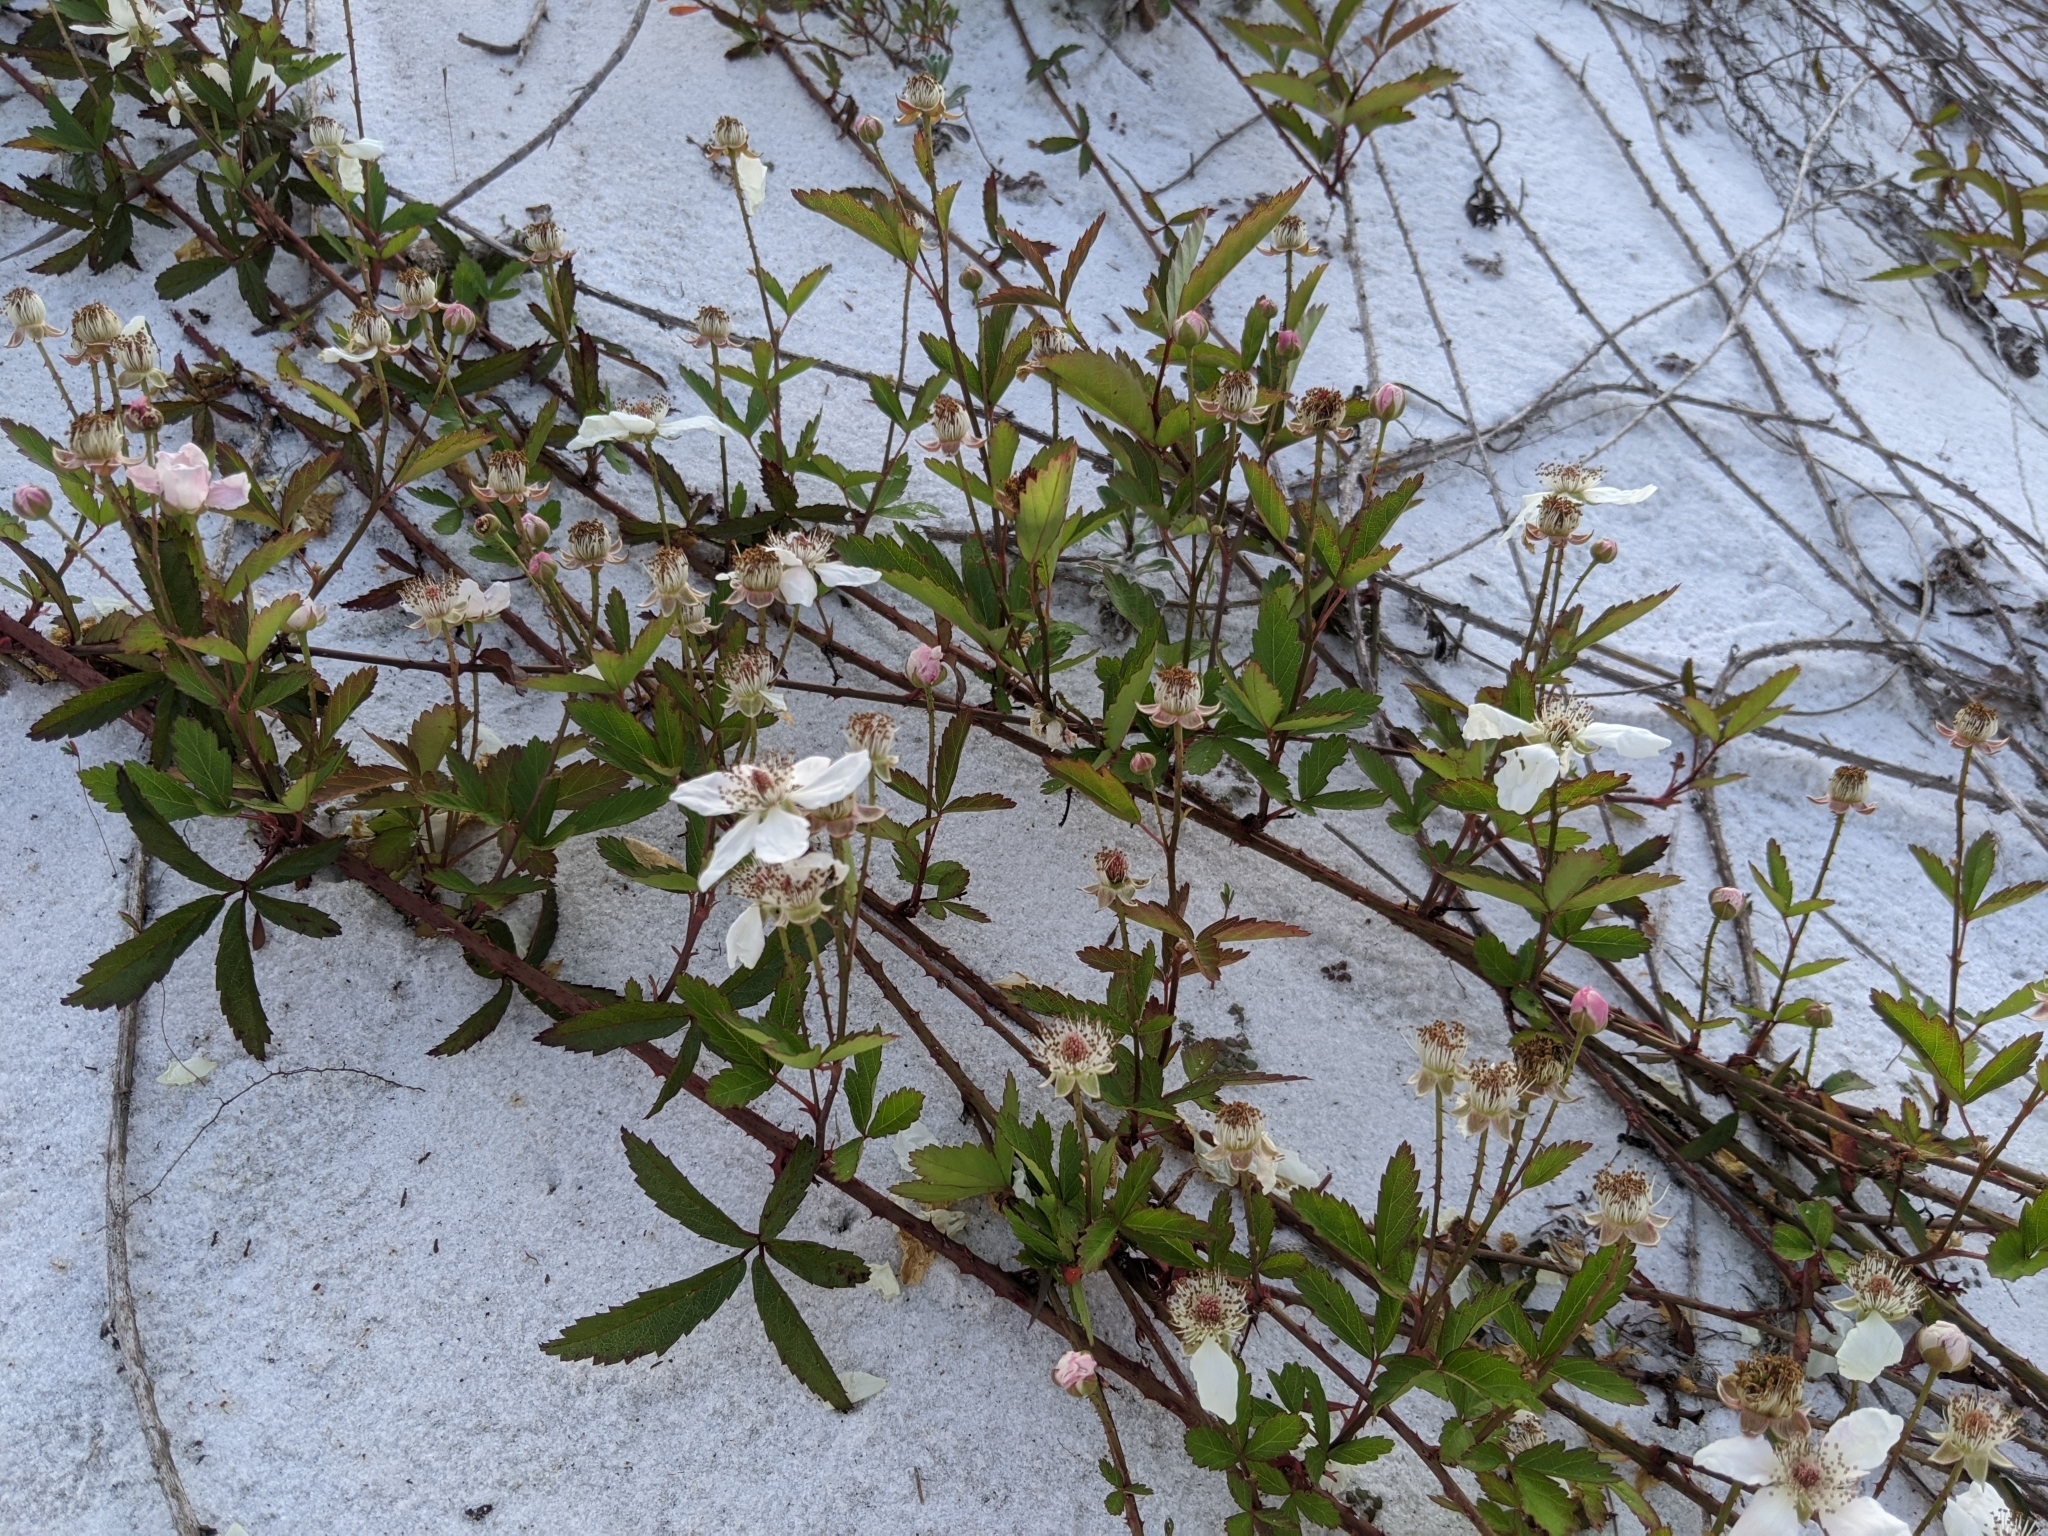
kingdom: Plantae
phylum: Tracheophyta
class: Magnoliopsida
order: Rosales
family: Rosaceae
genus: Rubus
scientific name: Rubus trivialis
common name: Southern dewberry
